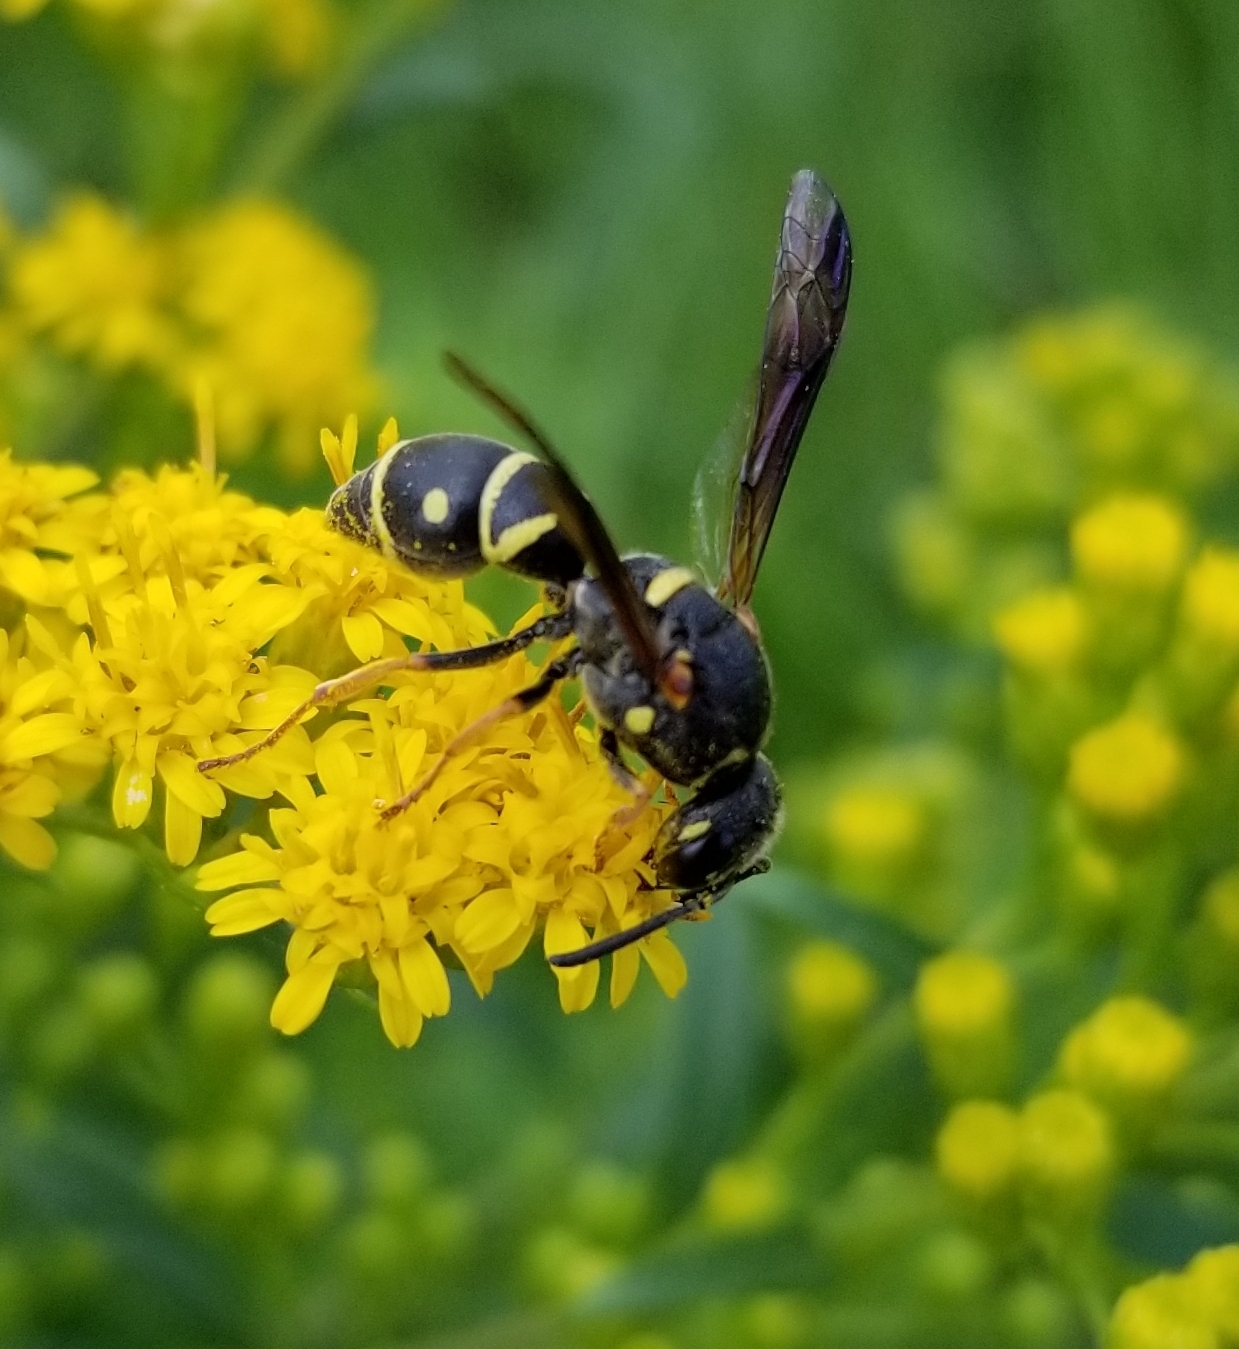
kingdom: Animalia
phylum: Arthropoda
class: Insecta
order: Hymenoptera
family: Eumenidae
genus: Parancistrocerus
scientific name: Parancistrocerus
